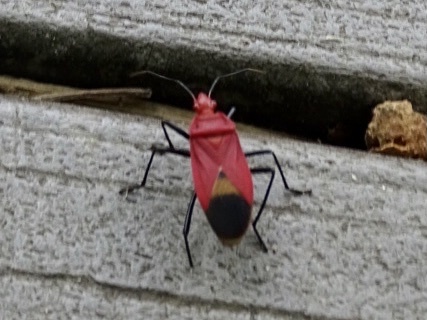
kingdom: Animalia
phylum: Arthropoda
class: Insecta
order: Hemiptera
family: Pyrrhocoridae
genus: Dindymus
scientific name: Dindymus
